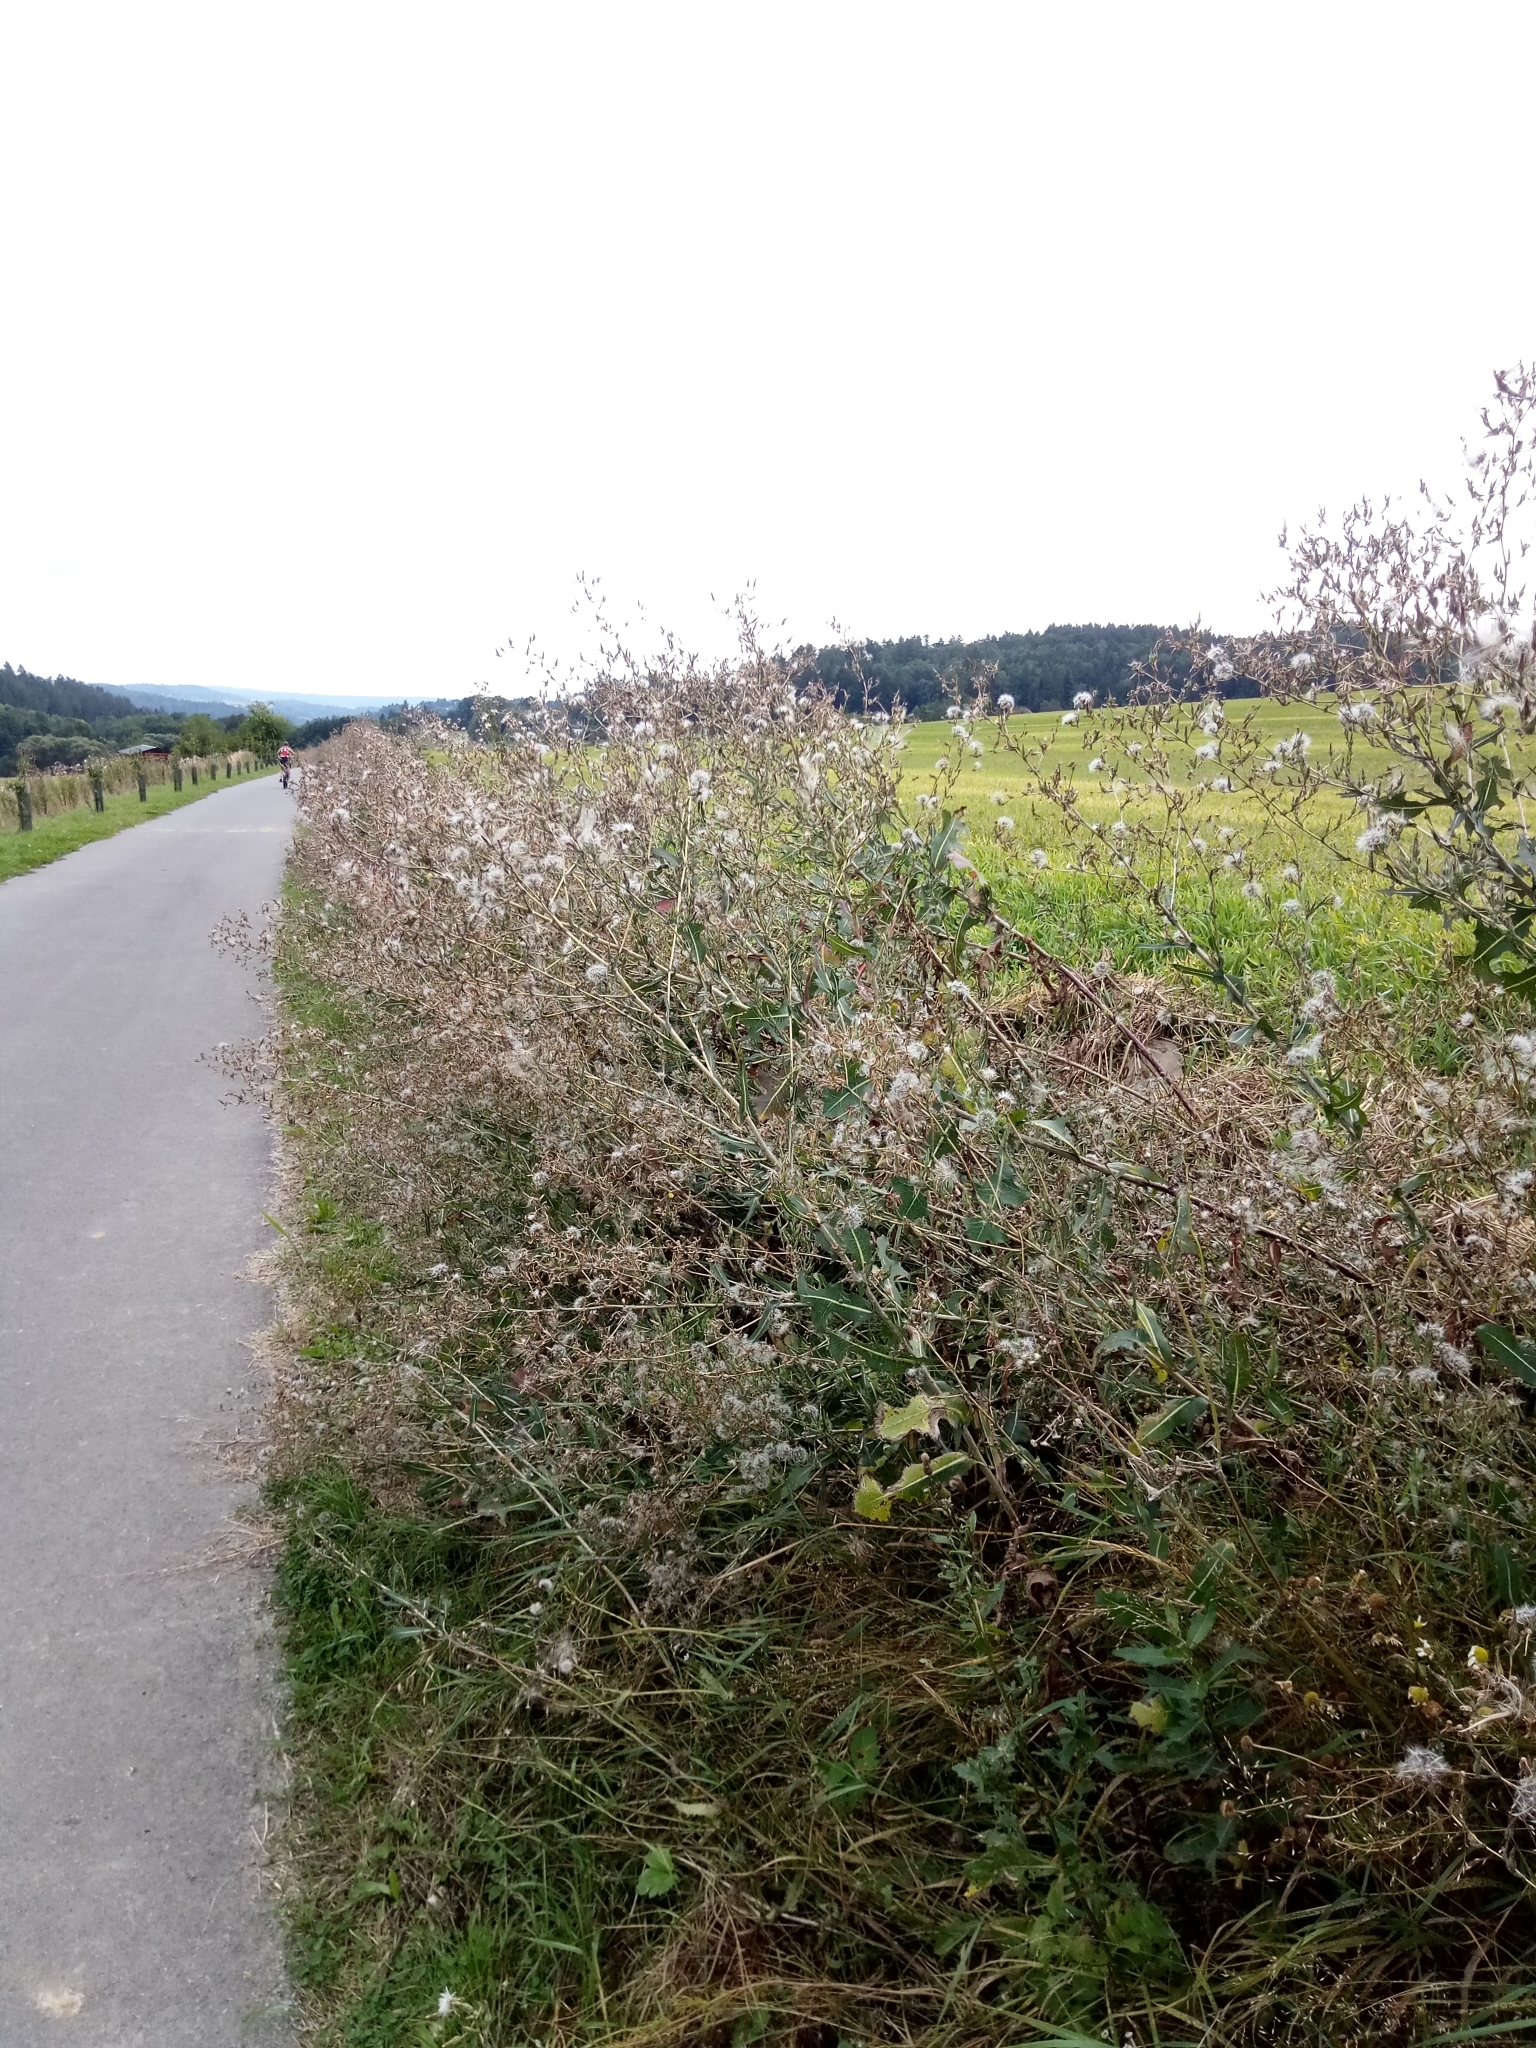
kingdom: Plantae
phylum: Tracheophyta
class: Magnoliopsida
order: Asterales
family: Asteraceae
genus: Lactuca
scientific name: Lactuca serriola
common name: Prickly lettuce
